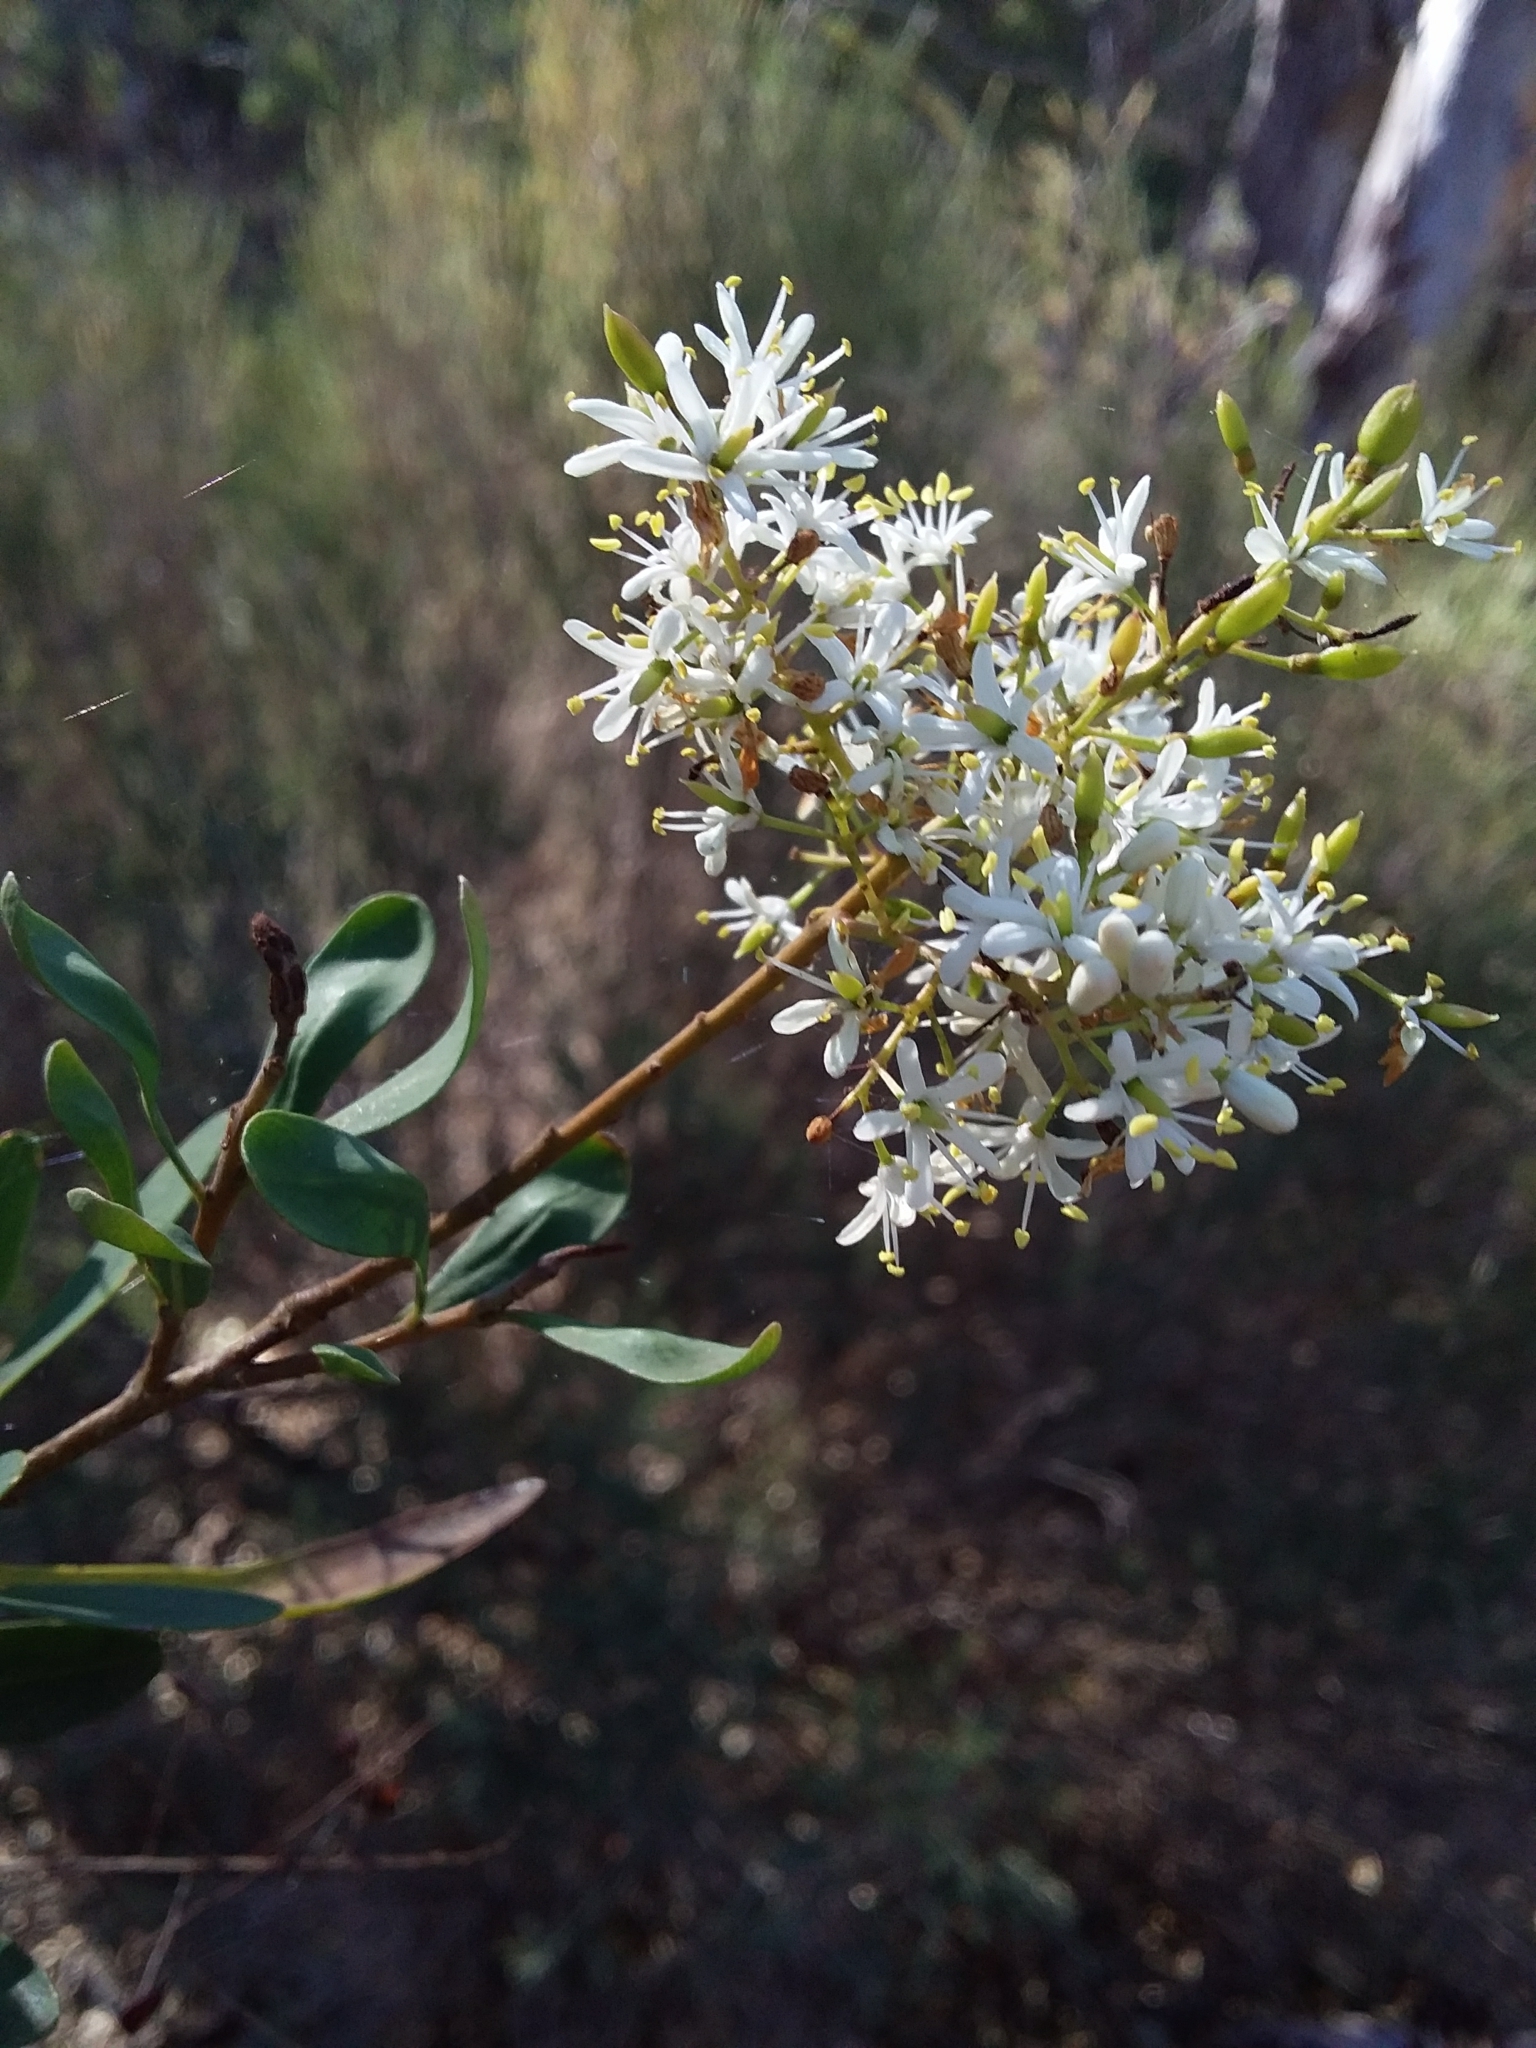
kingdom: Plantae
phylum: Tracheophyta
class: Magnoliopsida
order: Apiales
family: Pittosporaceae
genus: Bursaria
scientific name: Bursaria spinosa
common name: Australian blackthorn
